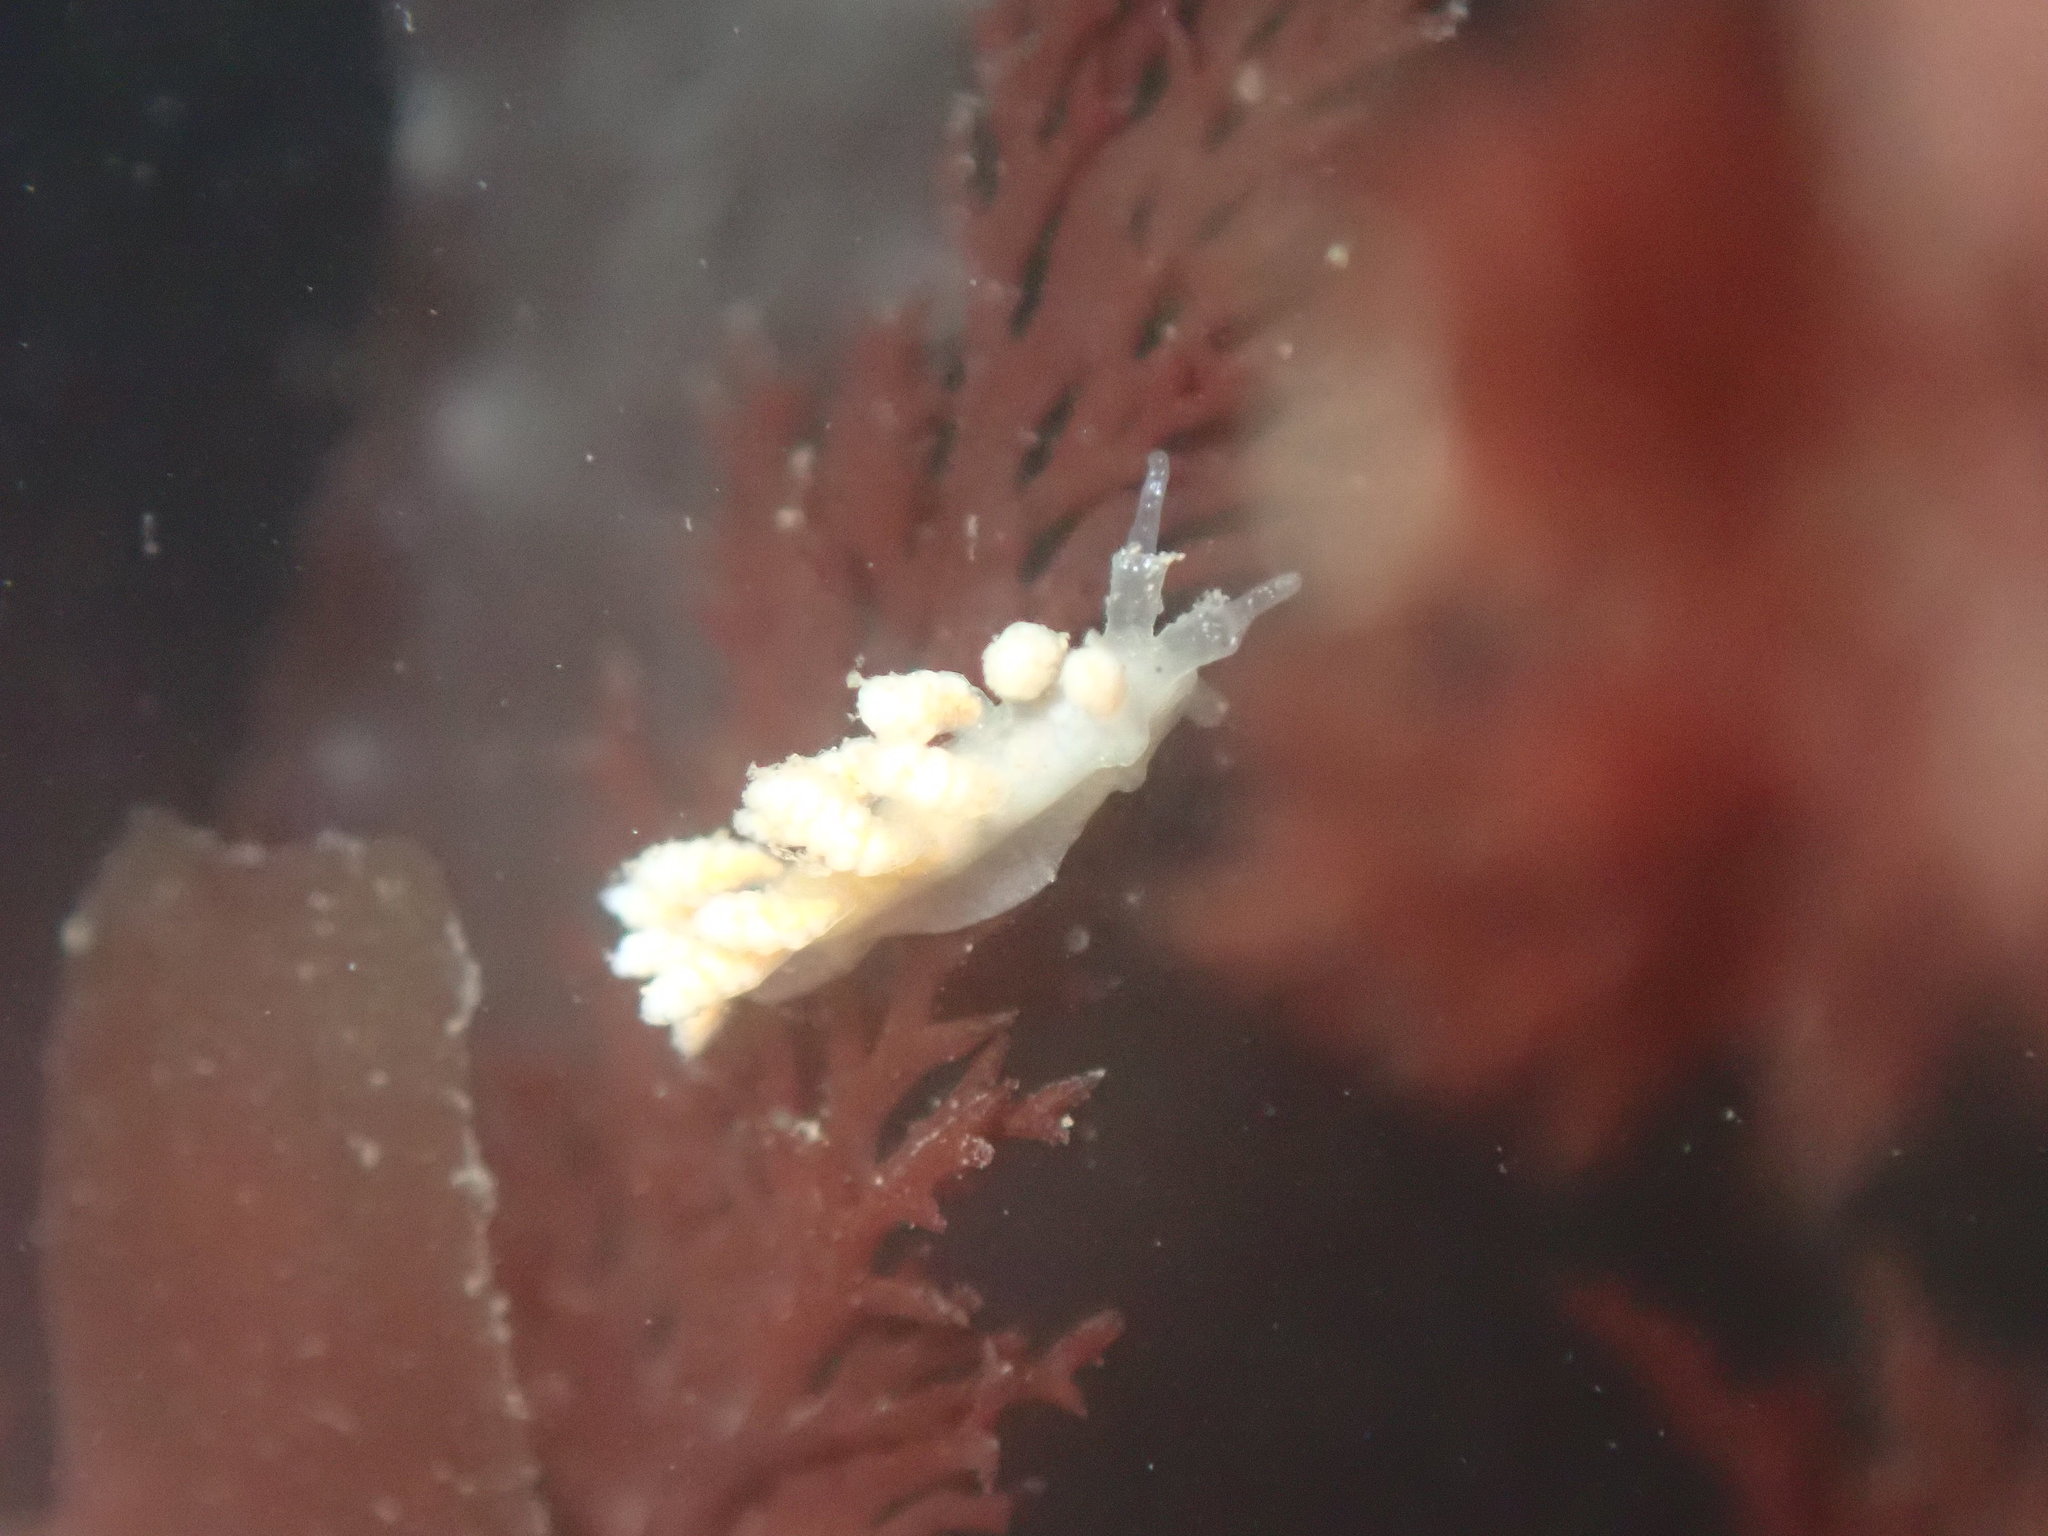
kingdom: Animalia
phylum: Mollusca
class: Gastropoda
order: Nudibranchia
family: Dotidae
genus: Doto
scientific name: Doto amyra
